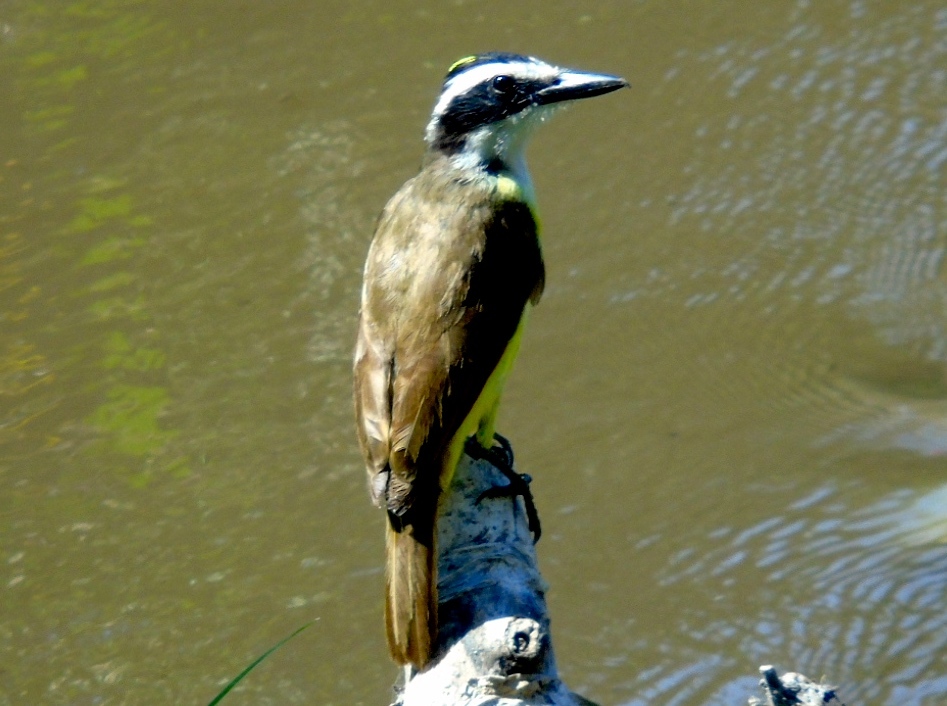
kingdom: Animalia
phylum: Chordata
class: Aves
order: Passeriformes
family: Tyrannidae
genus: Pitangus
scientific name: Pitangus sulphuratus
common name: Great kiskadee
